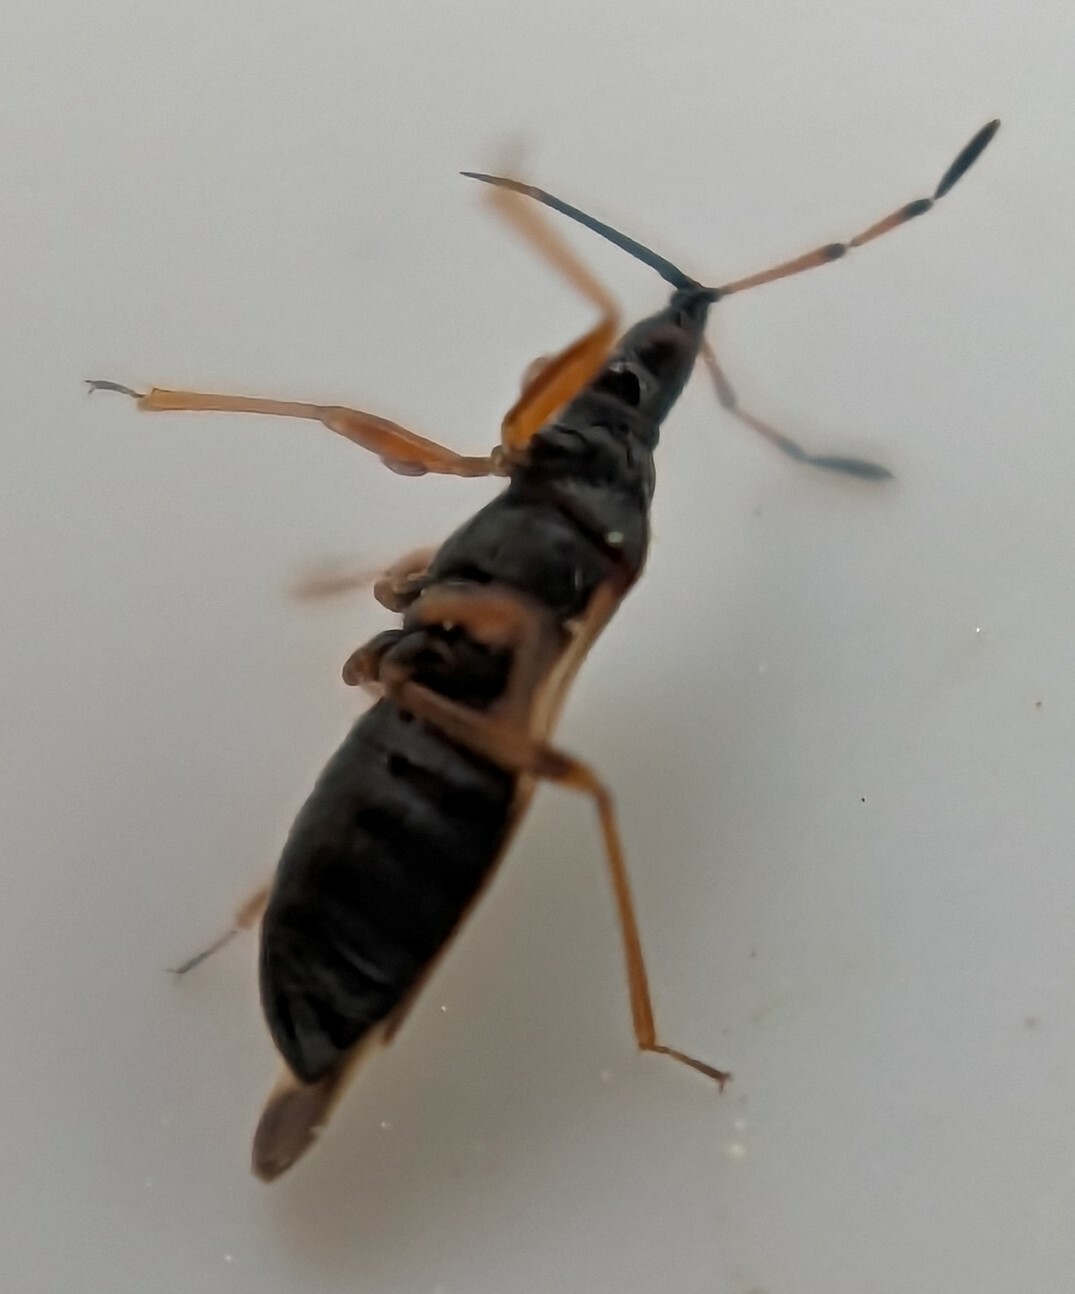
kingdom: Animalia
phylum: Arthropoda
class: Insecta
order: Hemiptera
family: Anthocoridae
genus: Anthocoris
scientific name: Anthocoris nemorum
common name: Minute pirate bug
